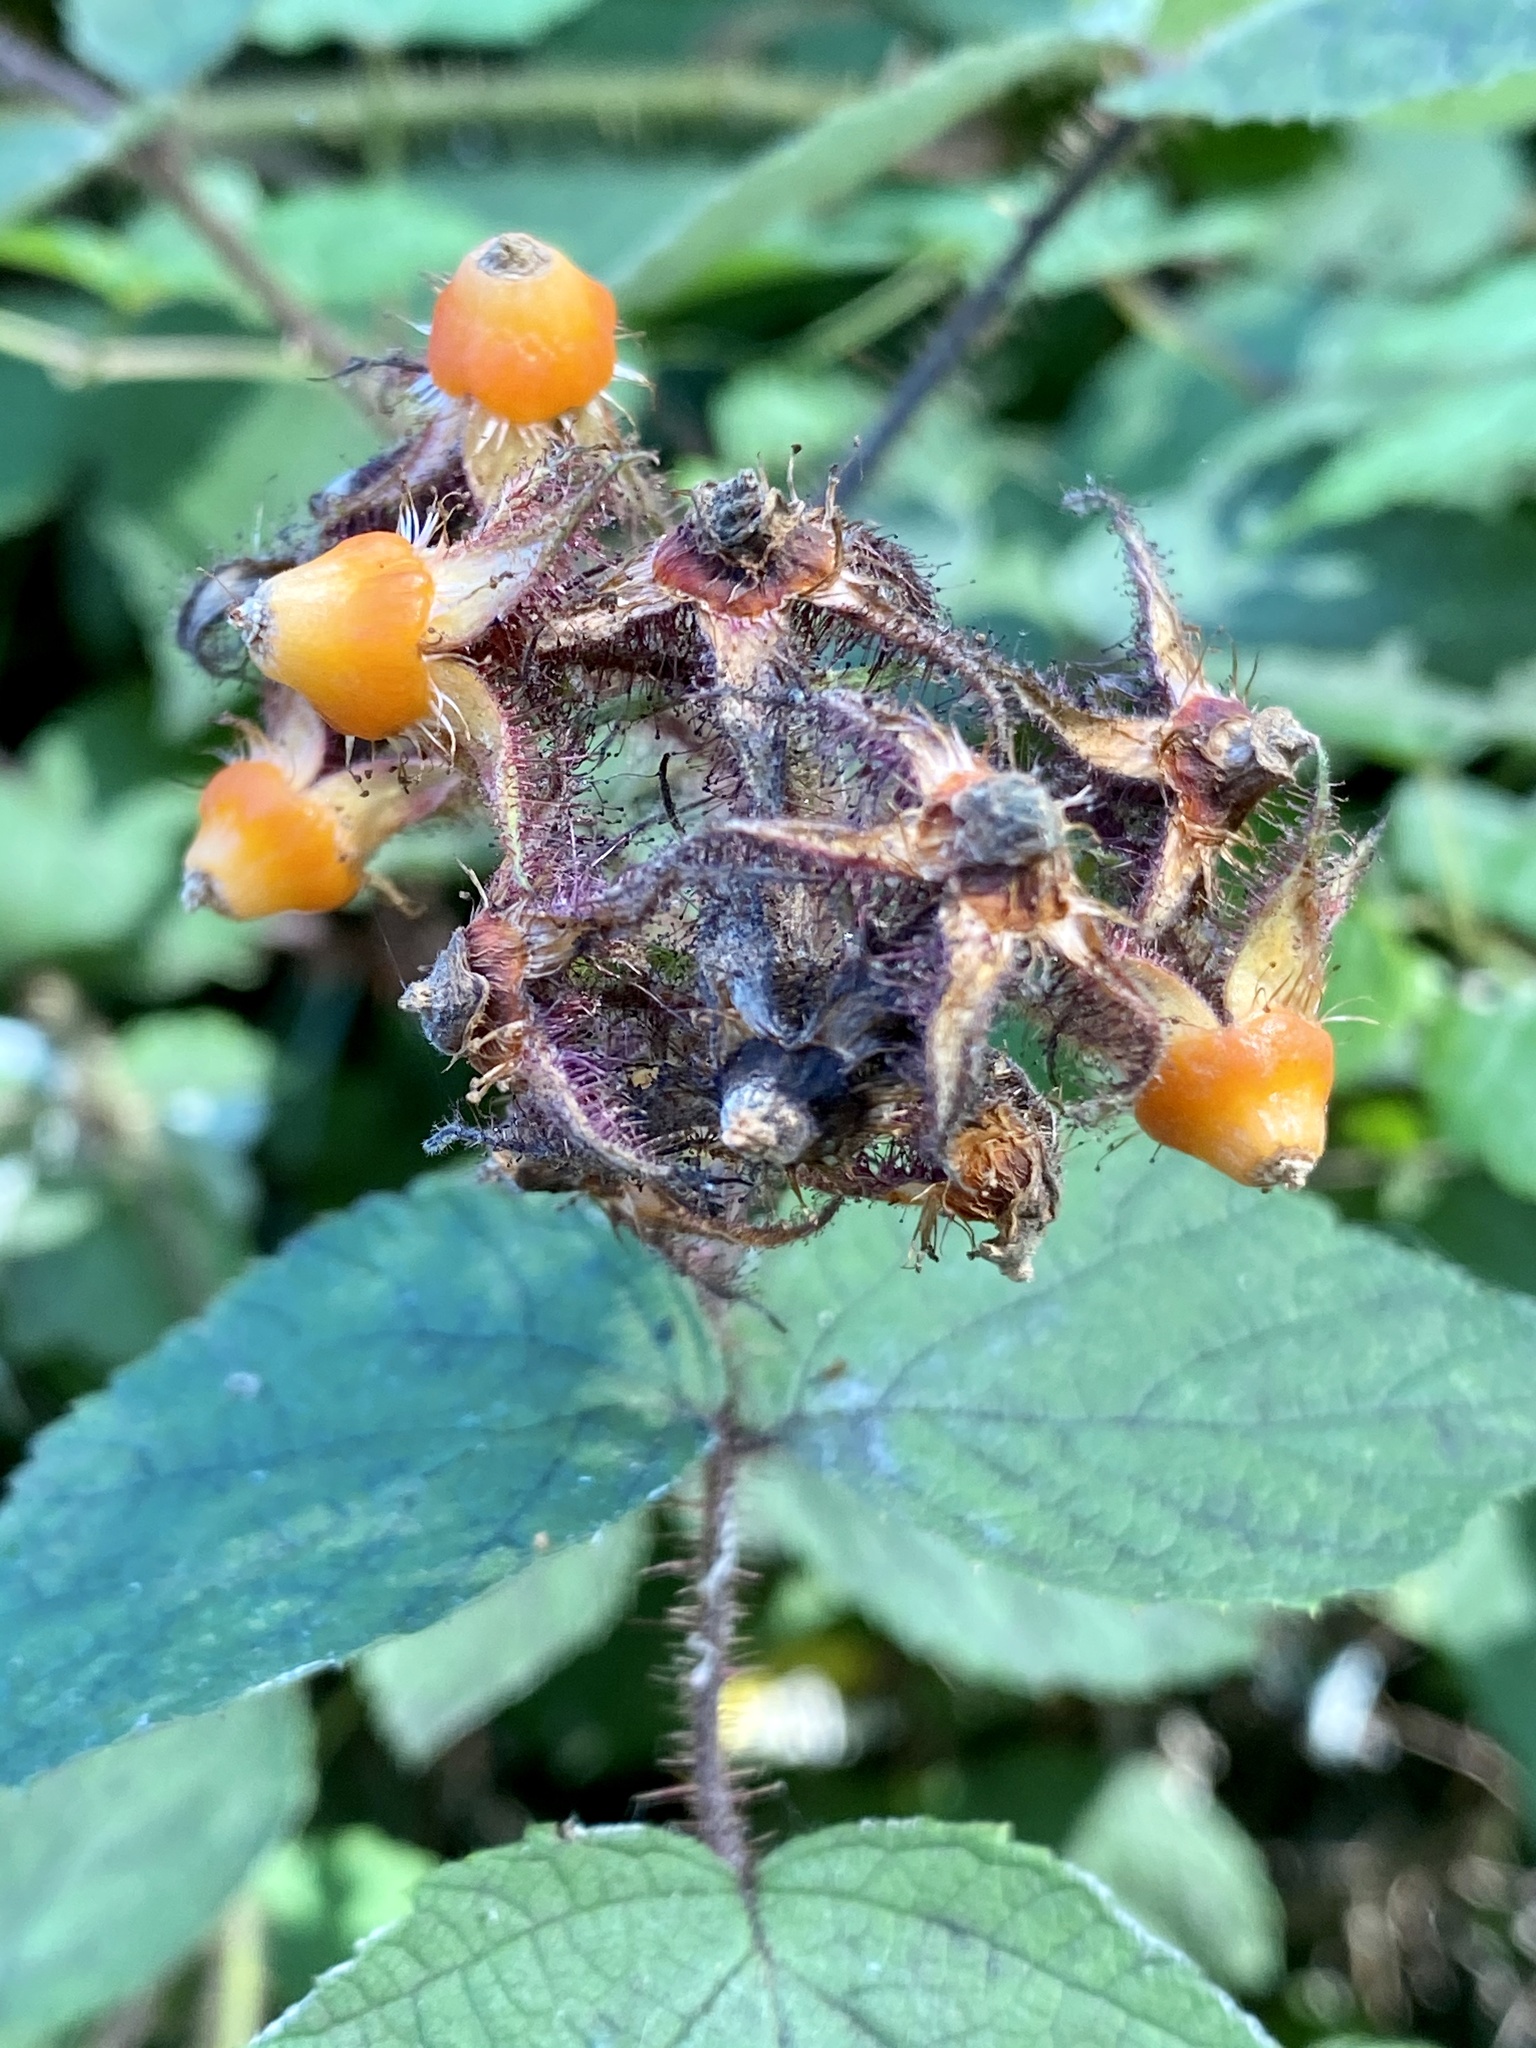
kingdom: Plantae
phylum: Tracheophyta
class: Magnoliopsida
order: Rosales
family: Rosaceae
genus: Rubus
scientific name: Rubus phoenicolasius
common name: Japanese wineberry
